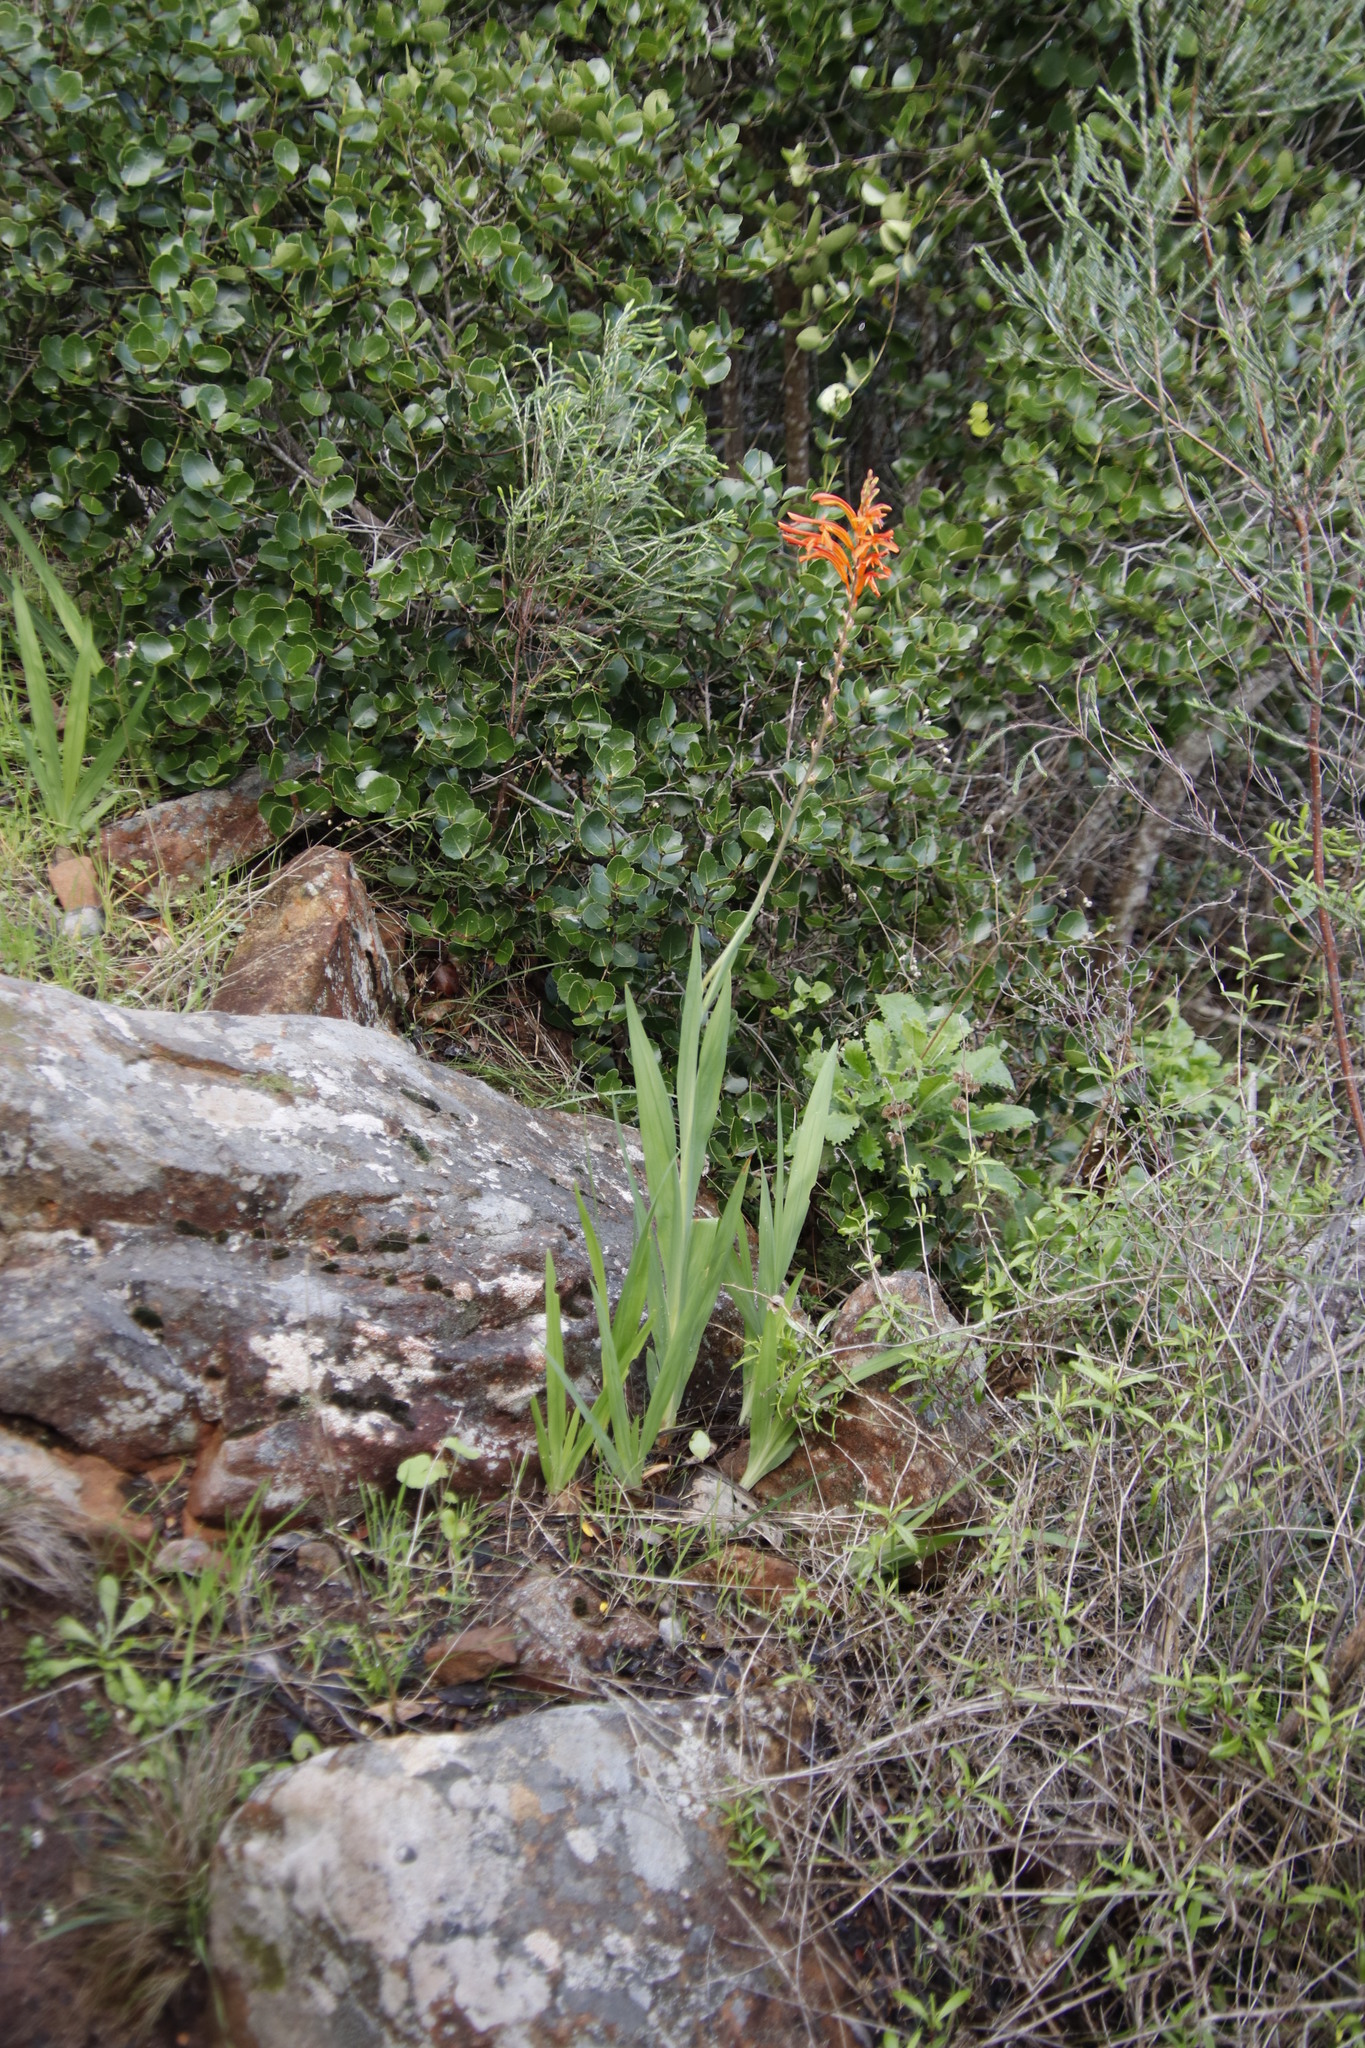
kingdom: Plantae
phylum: Tracheophyta
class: Liliopsida
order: Asparagales
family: Iridaceae
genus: Chasmanthe
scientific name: Chasmanthe floribunda
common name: African cornflag
